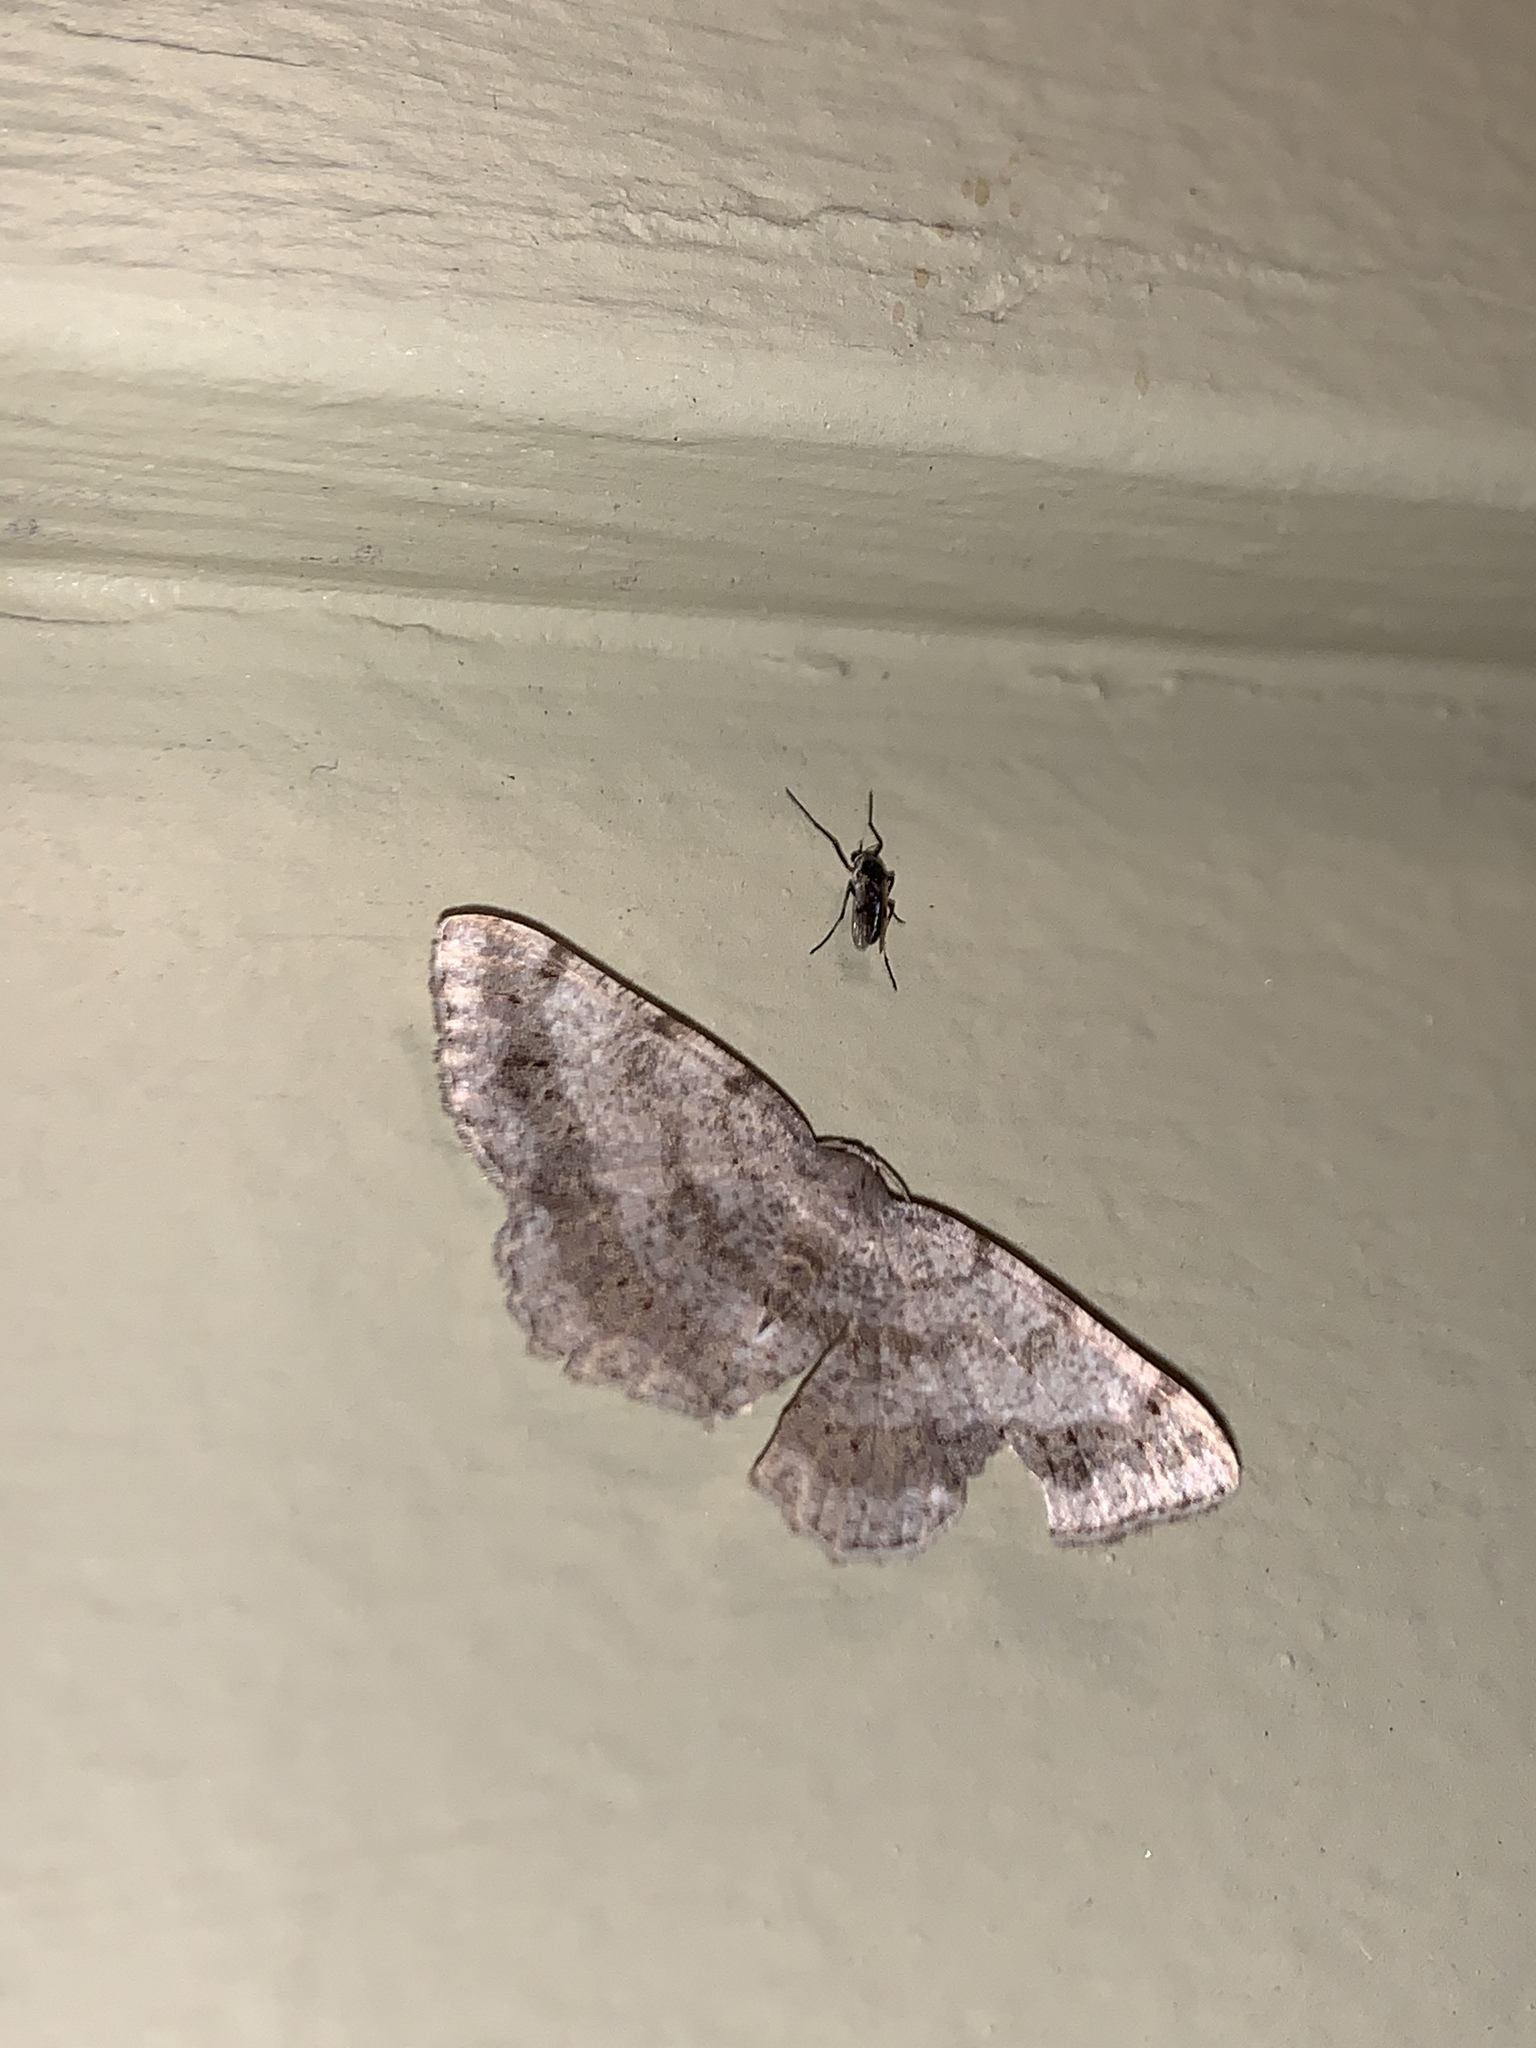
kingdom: Animalia
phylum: Arthropoda
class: Insecta
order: Lepidoptera
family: Geometridae
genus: Digrammia
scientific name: Digrammia ocellinata
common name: Faint-spotted angle
